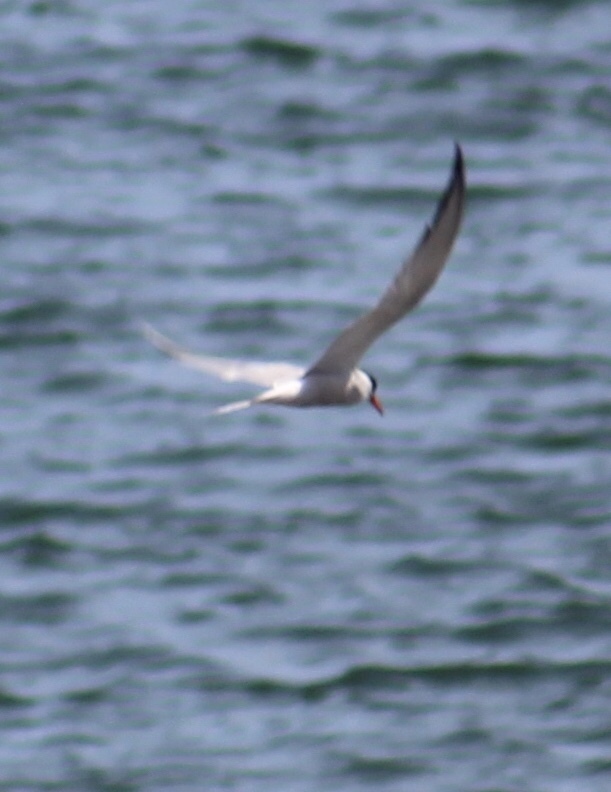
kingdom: Animalia
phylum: Chordata
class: Aves
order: Charadriiformes
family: Laridae
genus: Sterna
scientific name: Sterna hirundo
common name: Common tern
